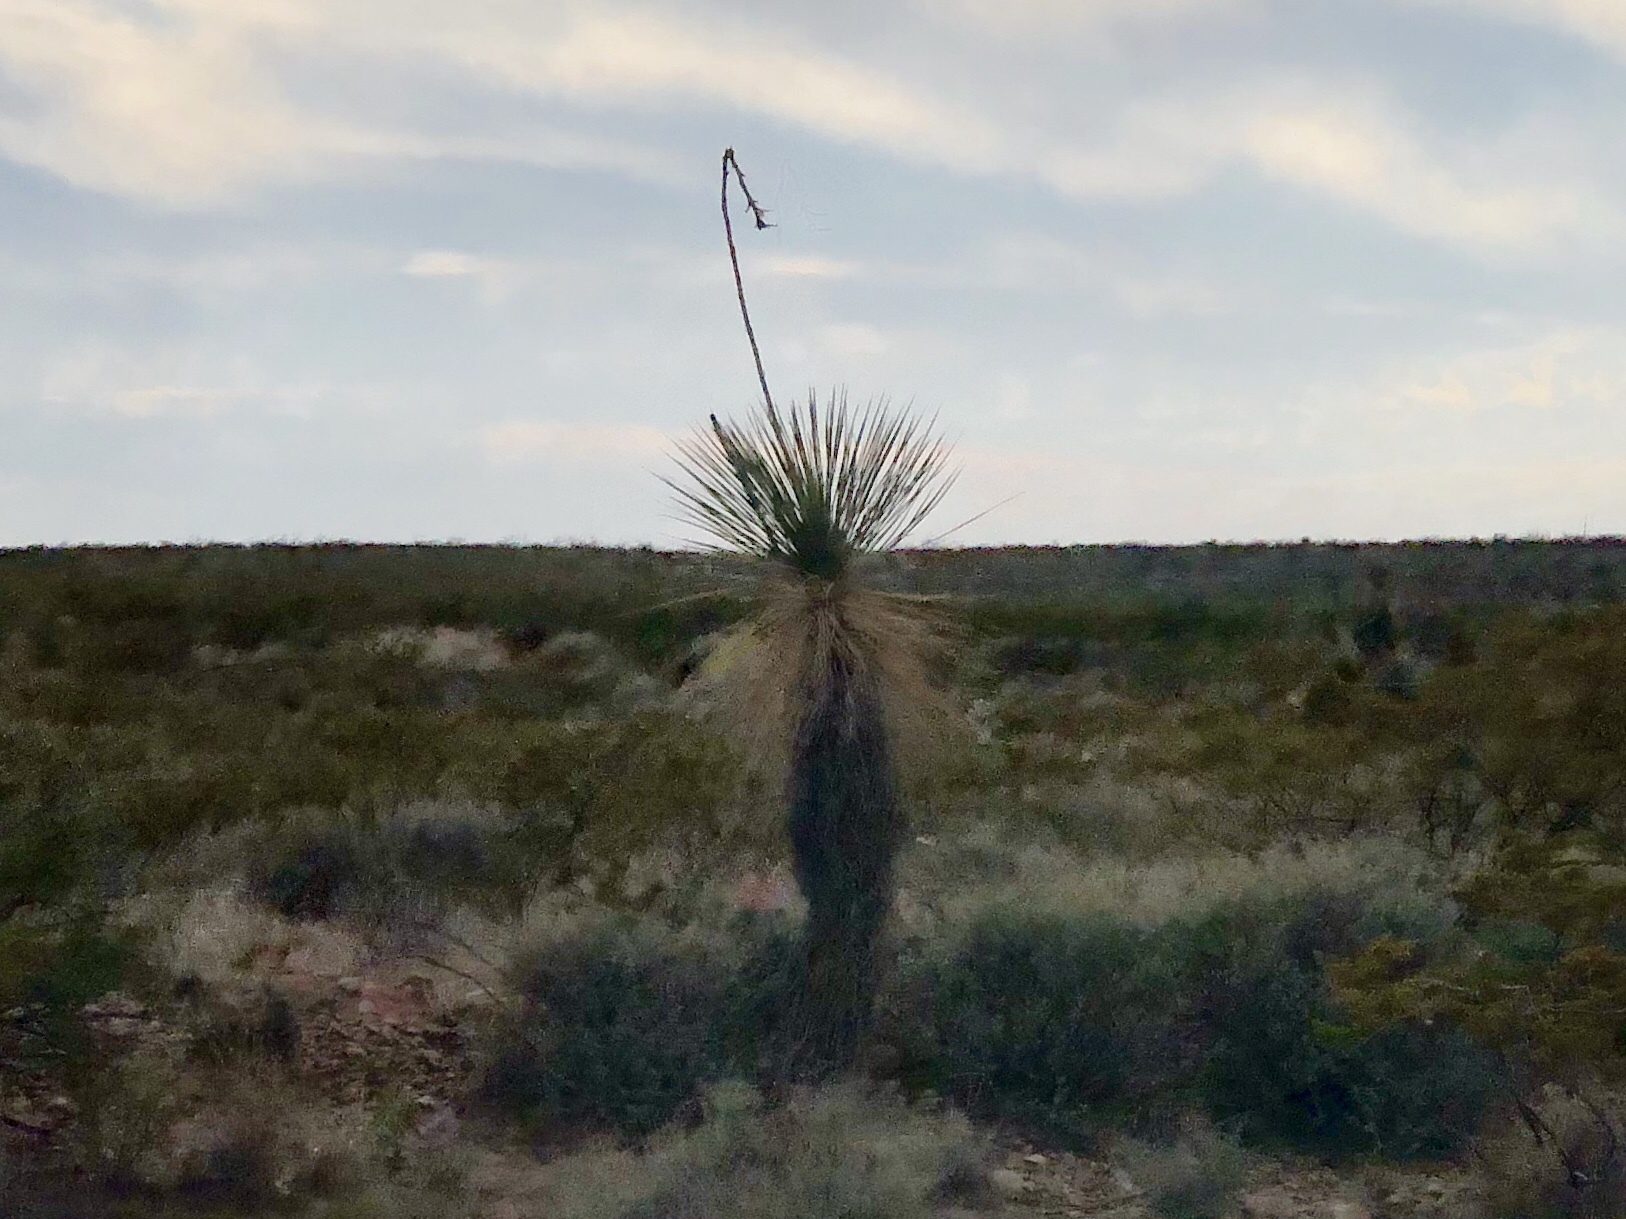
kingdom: Plantae
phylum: Tracheophyta
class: Liliopsida
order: Asparagales
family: Asparagaceae
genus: Yucca
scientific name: Yucca elata
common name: Palmella
